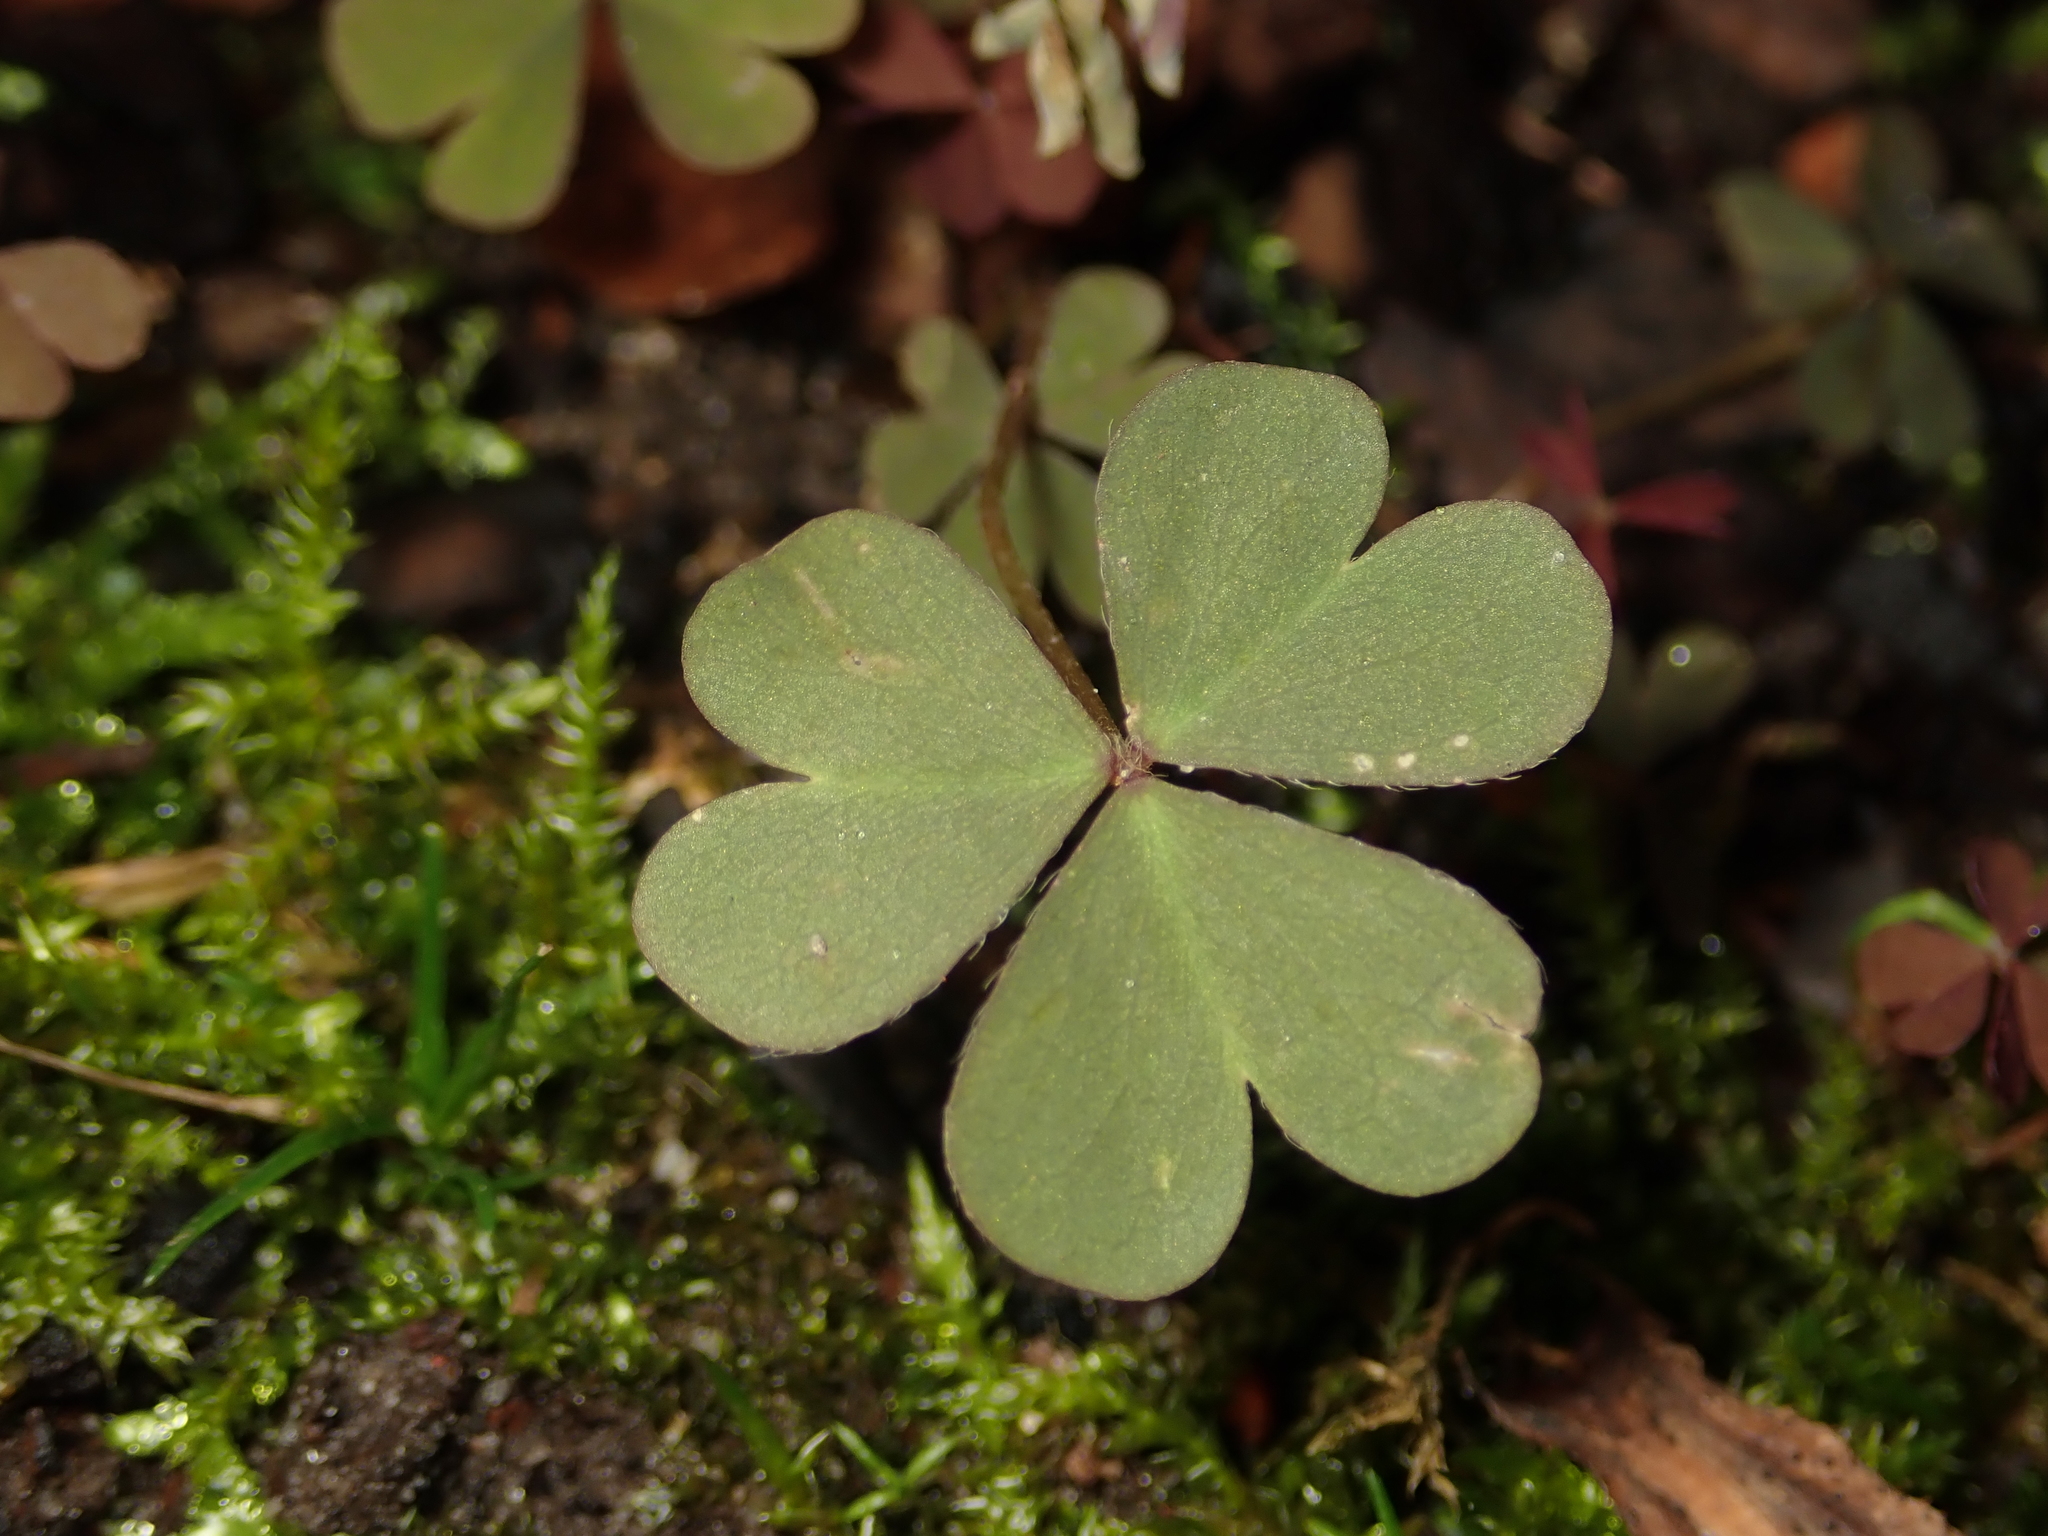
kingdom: Plantae
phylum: Tracheophyta
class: Magnoliopsida
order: Oxalidales
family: Oxalidaceae
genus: Oxalis
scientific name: Oxalis corniculata
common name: Procumbent yellow-sorrel
